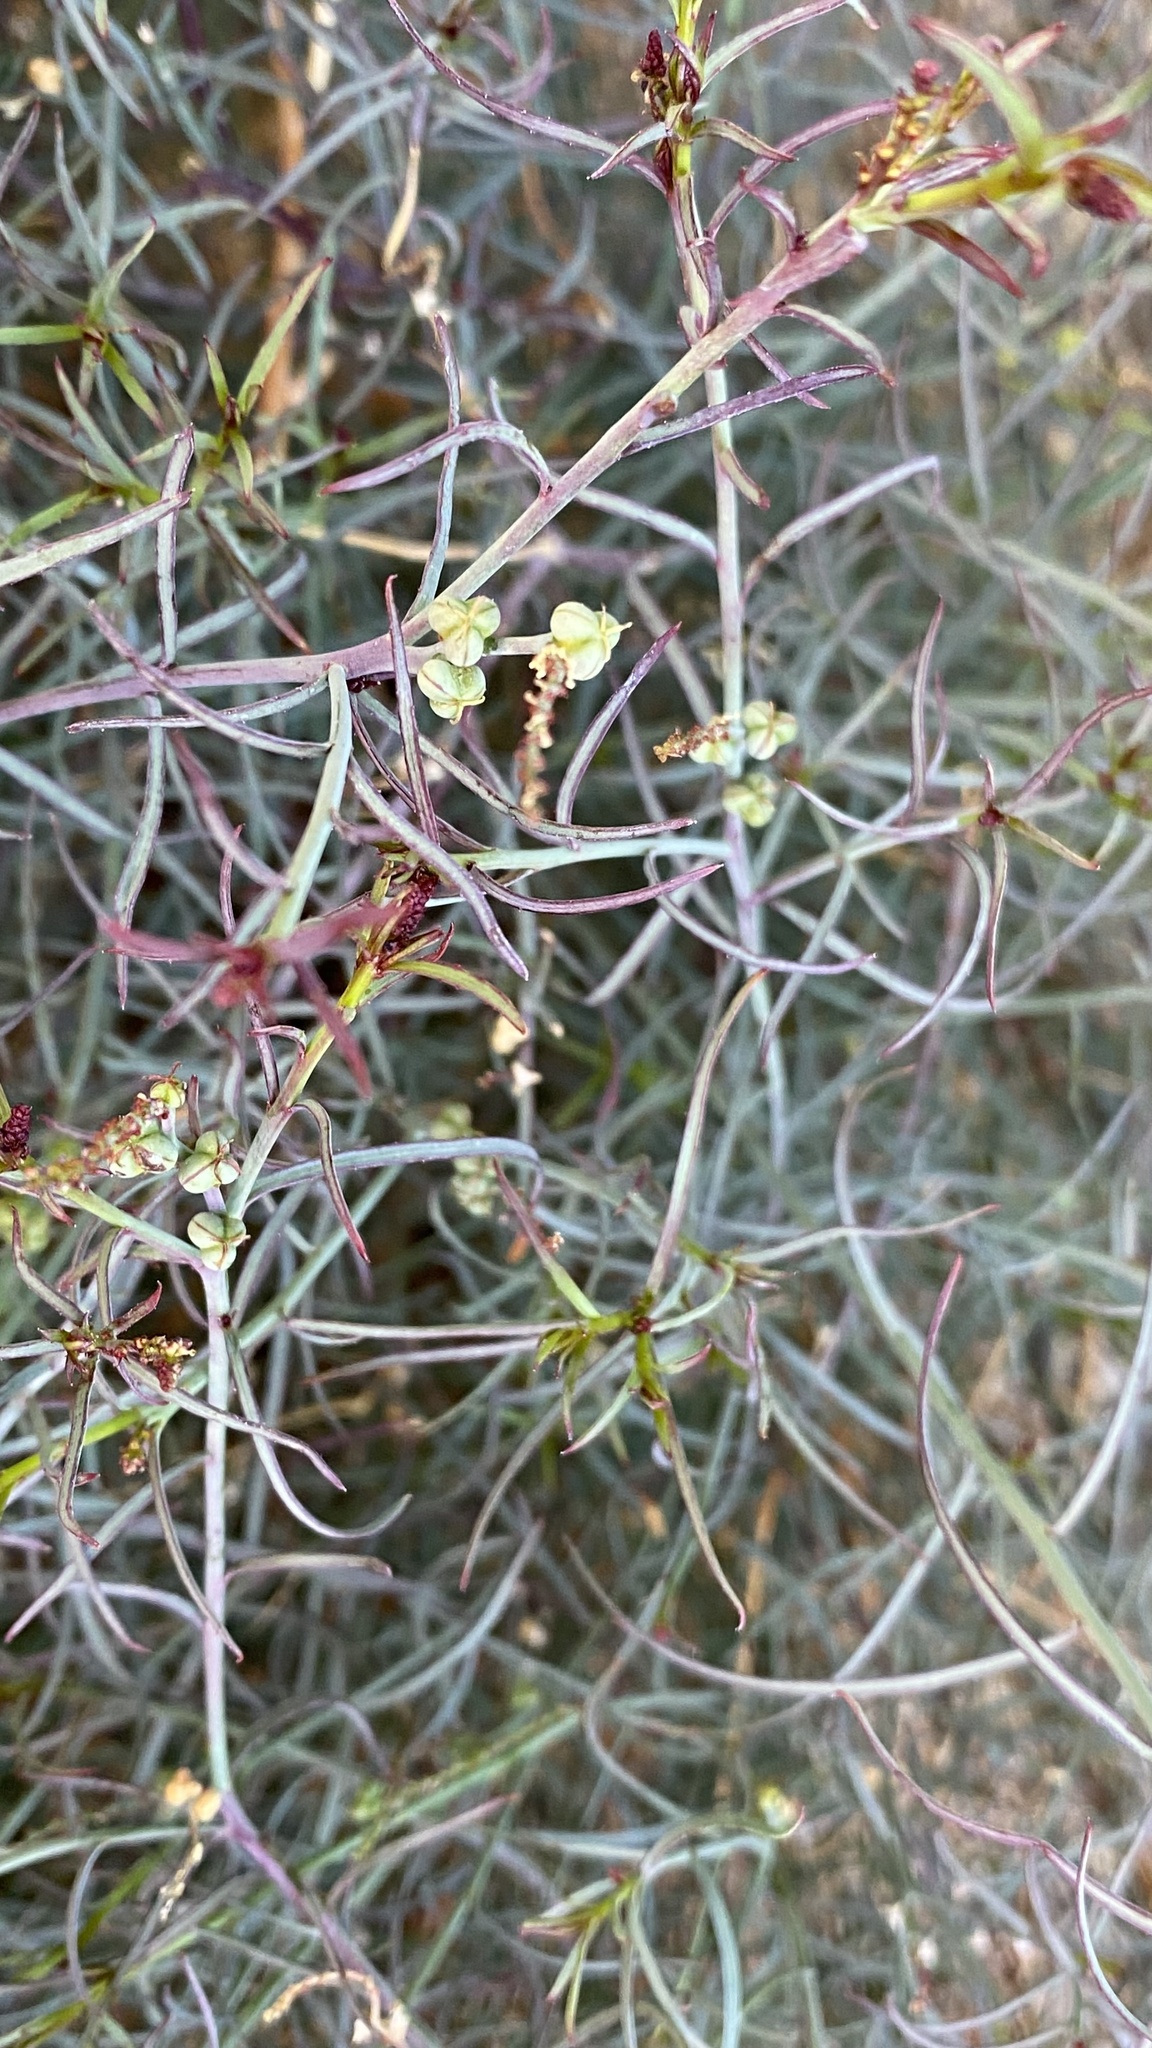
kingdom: Plantae
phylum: Tracheophyta
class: Magnoliopsida
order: Malpighiales
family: Euphorbiaceae
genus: Stillingia
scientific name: Stillingia linearifolia
